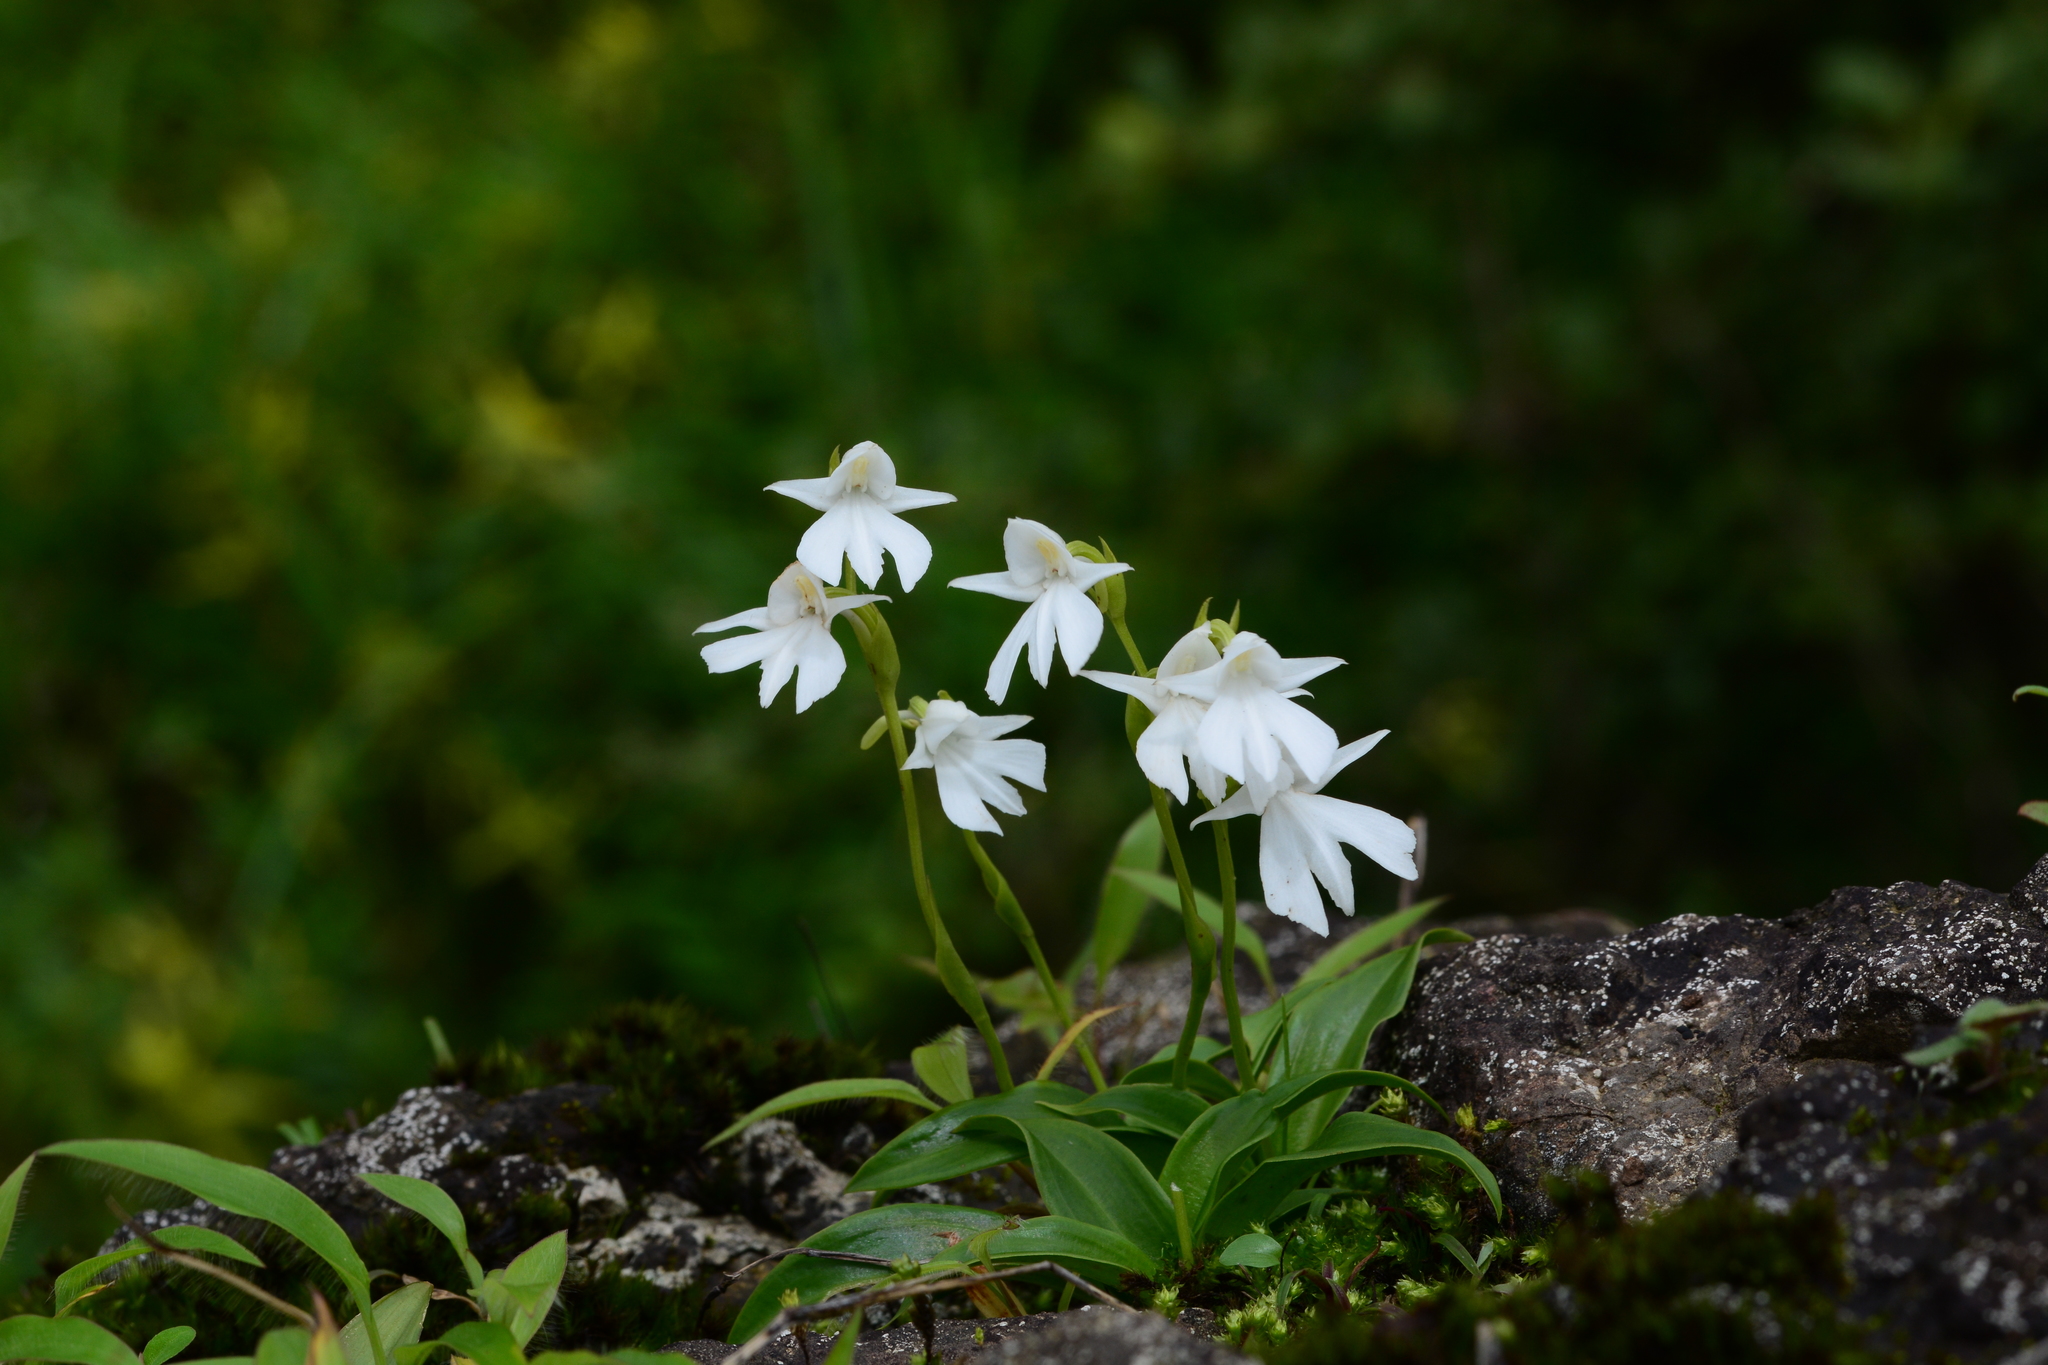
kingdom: Plantae
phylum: Tracheophyta
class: Liliopsida
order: Asparagales
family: Orchidaceae
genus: Habenaria
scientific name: Habenaria suaveolens
